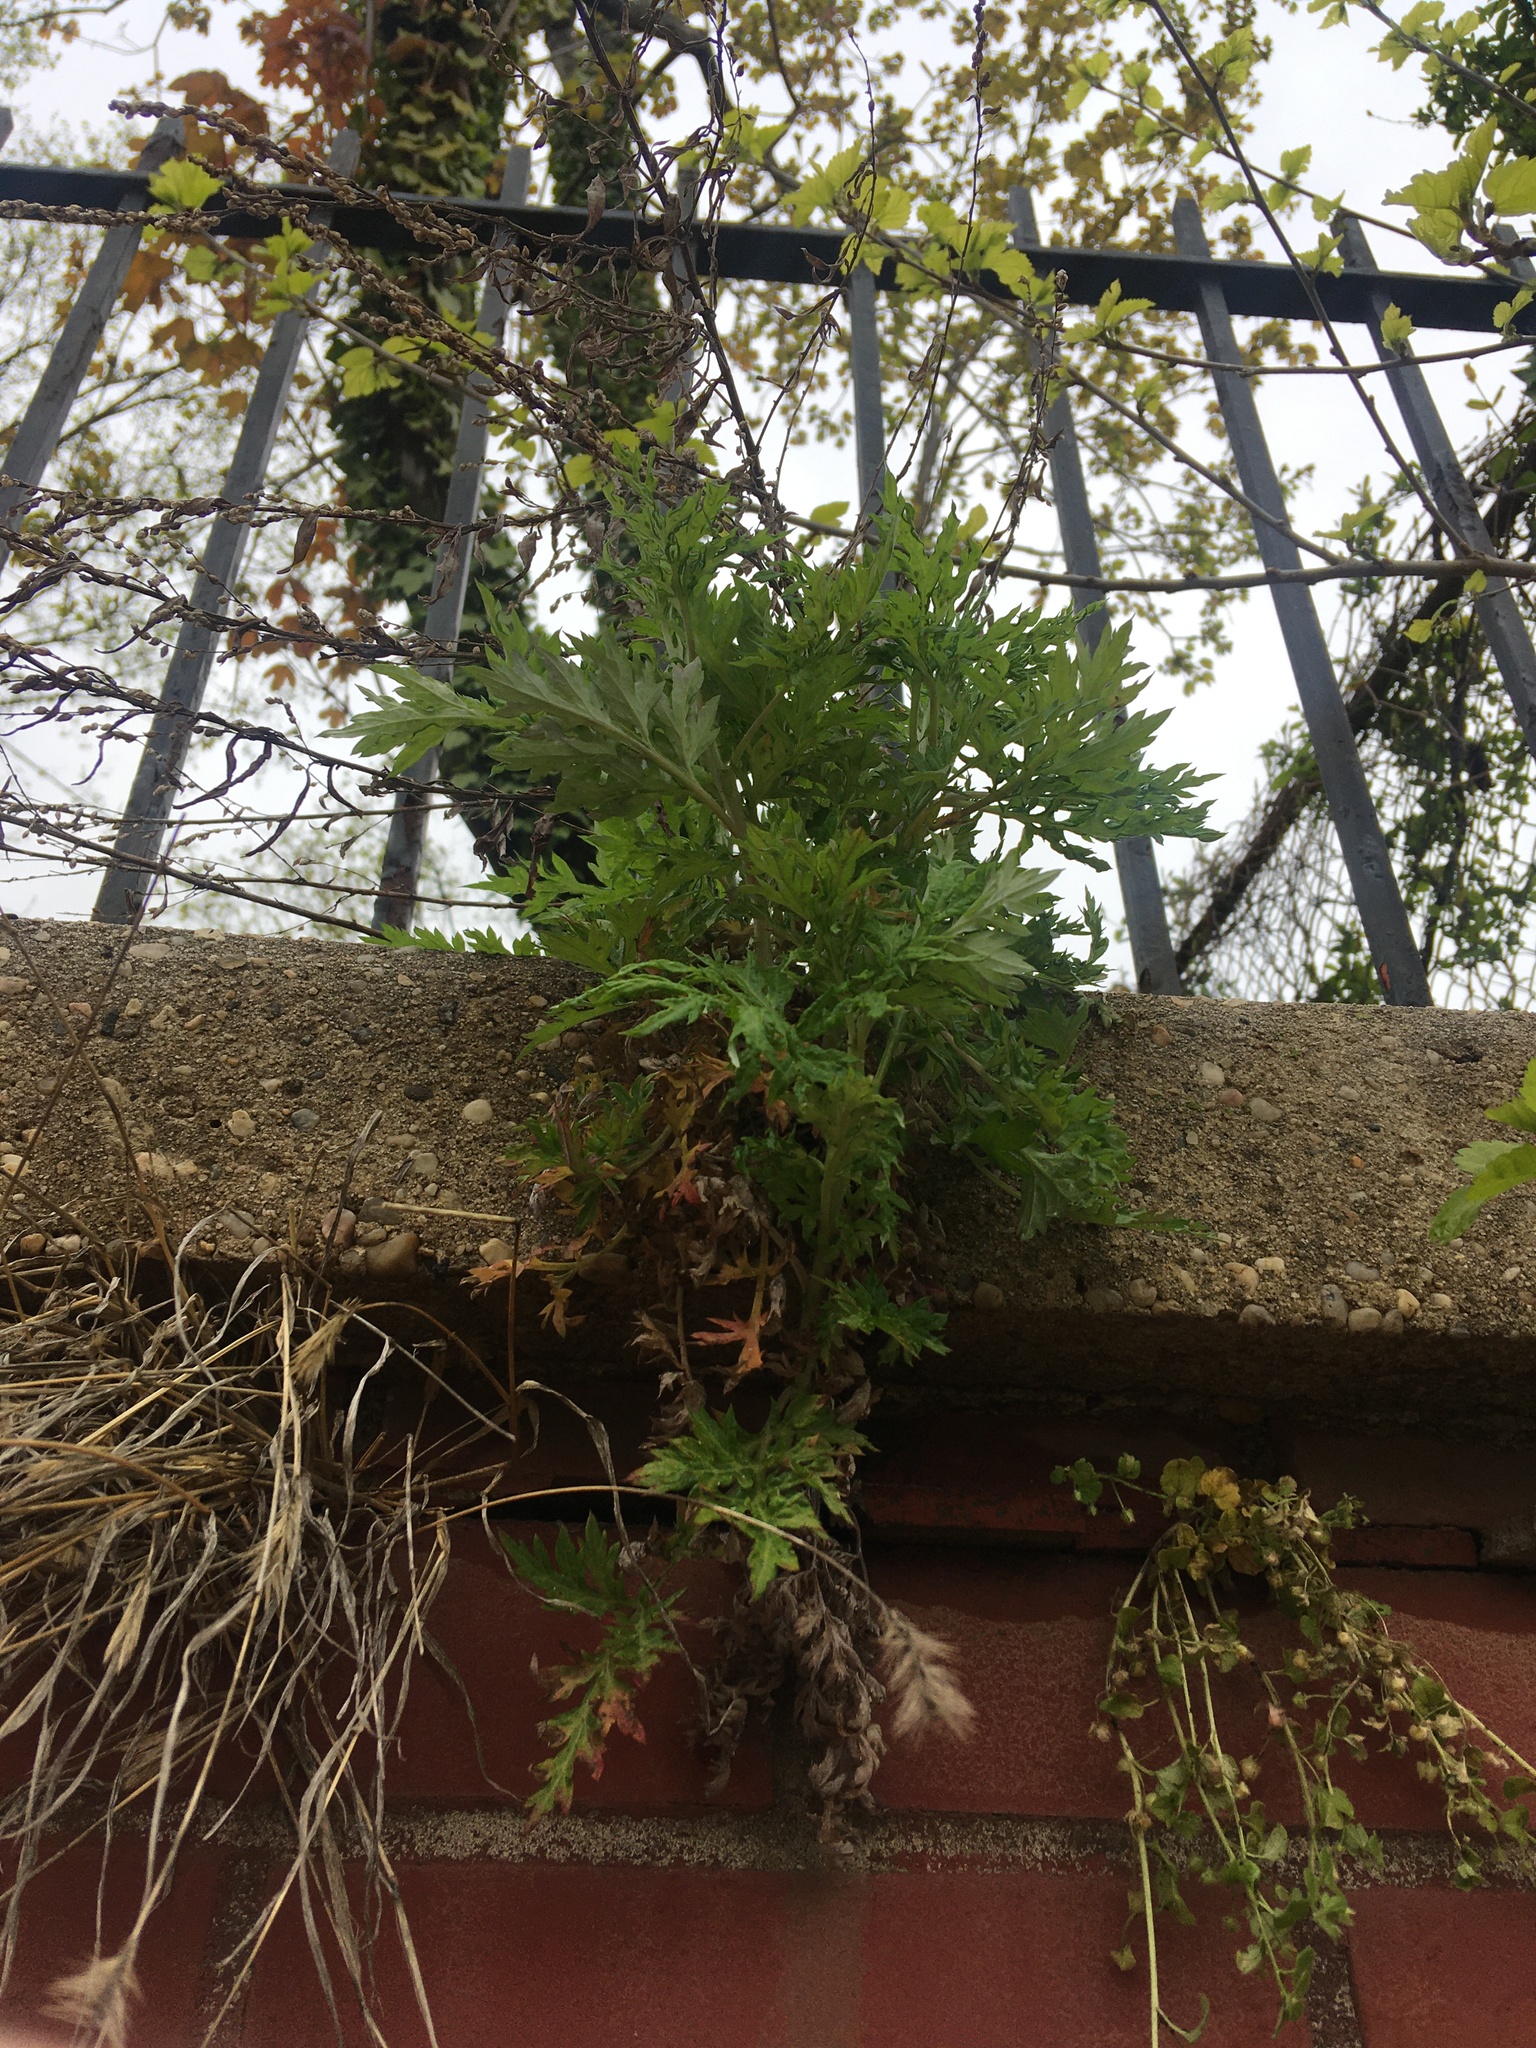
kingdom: Plantae
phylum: Tracheophyta
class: Magnoliopsida
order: Asterales
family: Asteraceae
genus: Artemisia
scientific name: Artemisia vulgaris
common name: Mugwort
